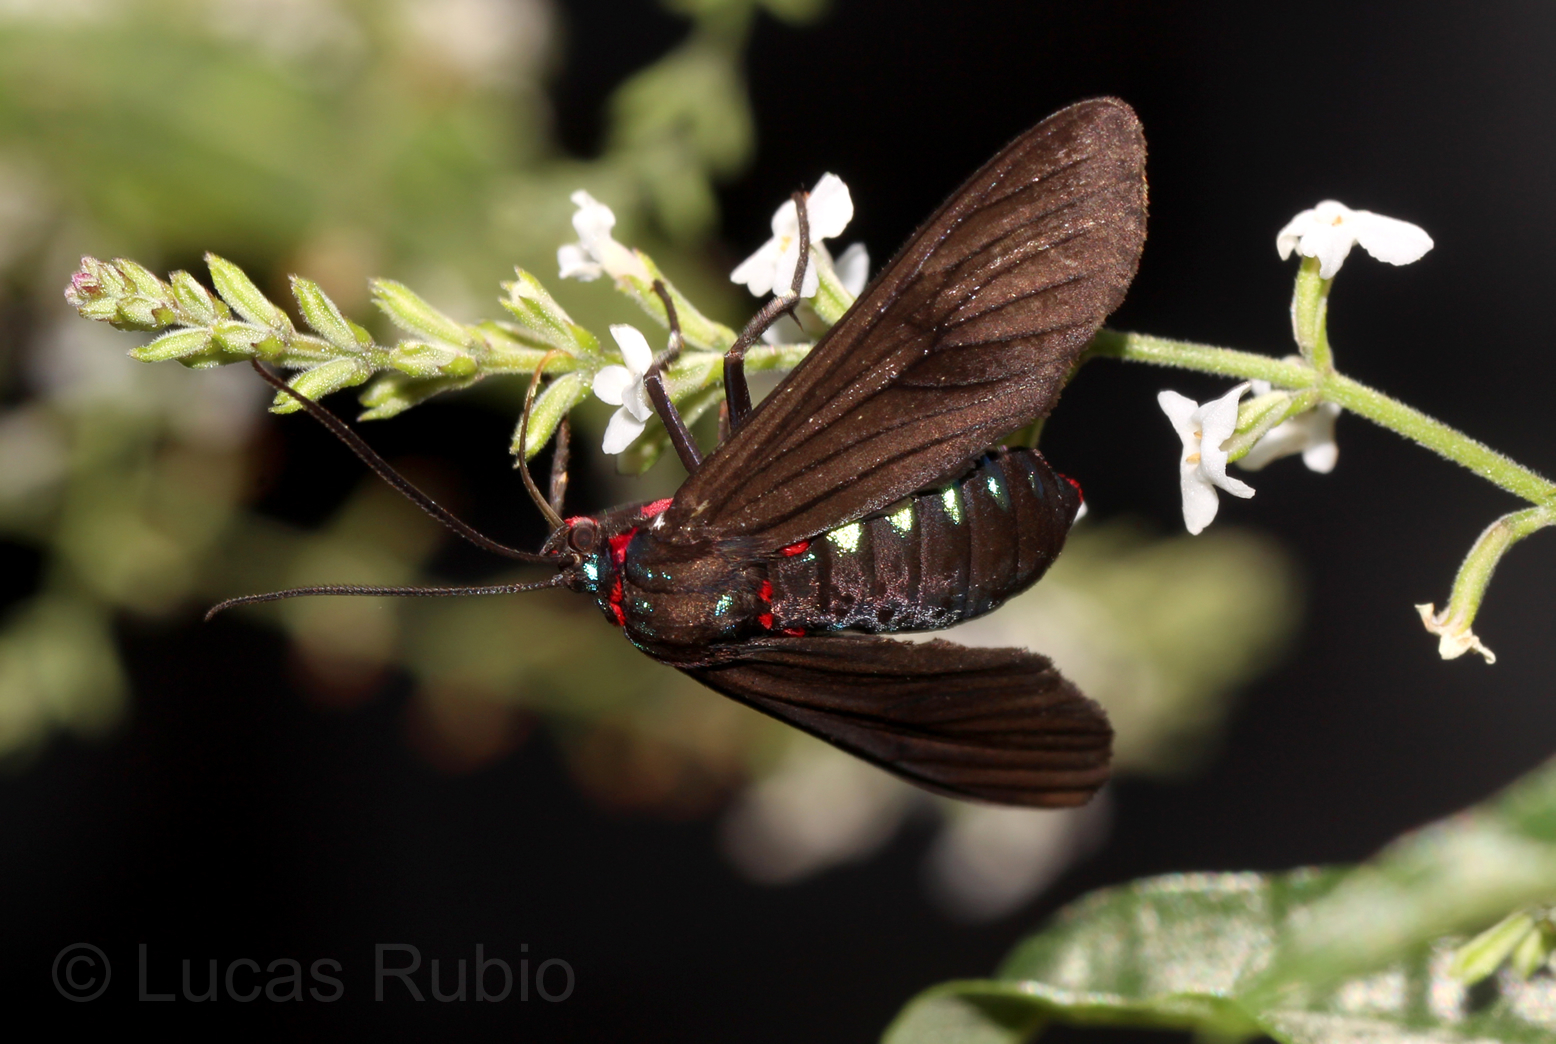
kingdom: Animalia
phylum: Arthropoda
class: Insecta
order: Lepidoptera
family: Erebidae
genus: Saurita
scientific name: Saurita cassandra
